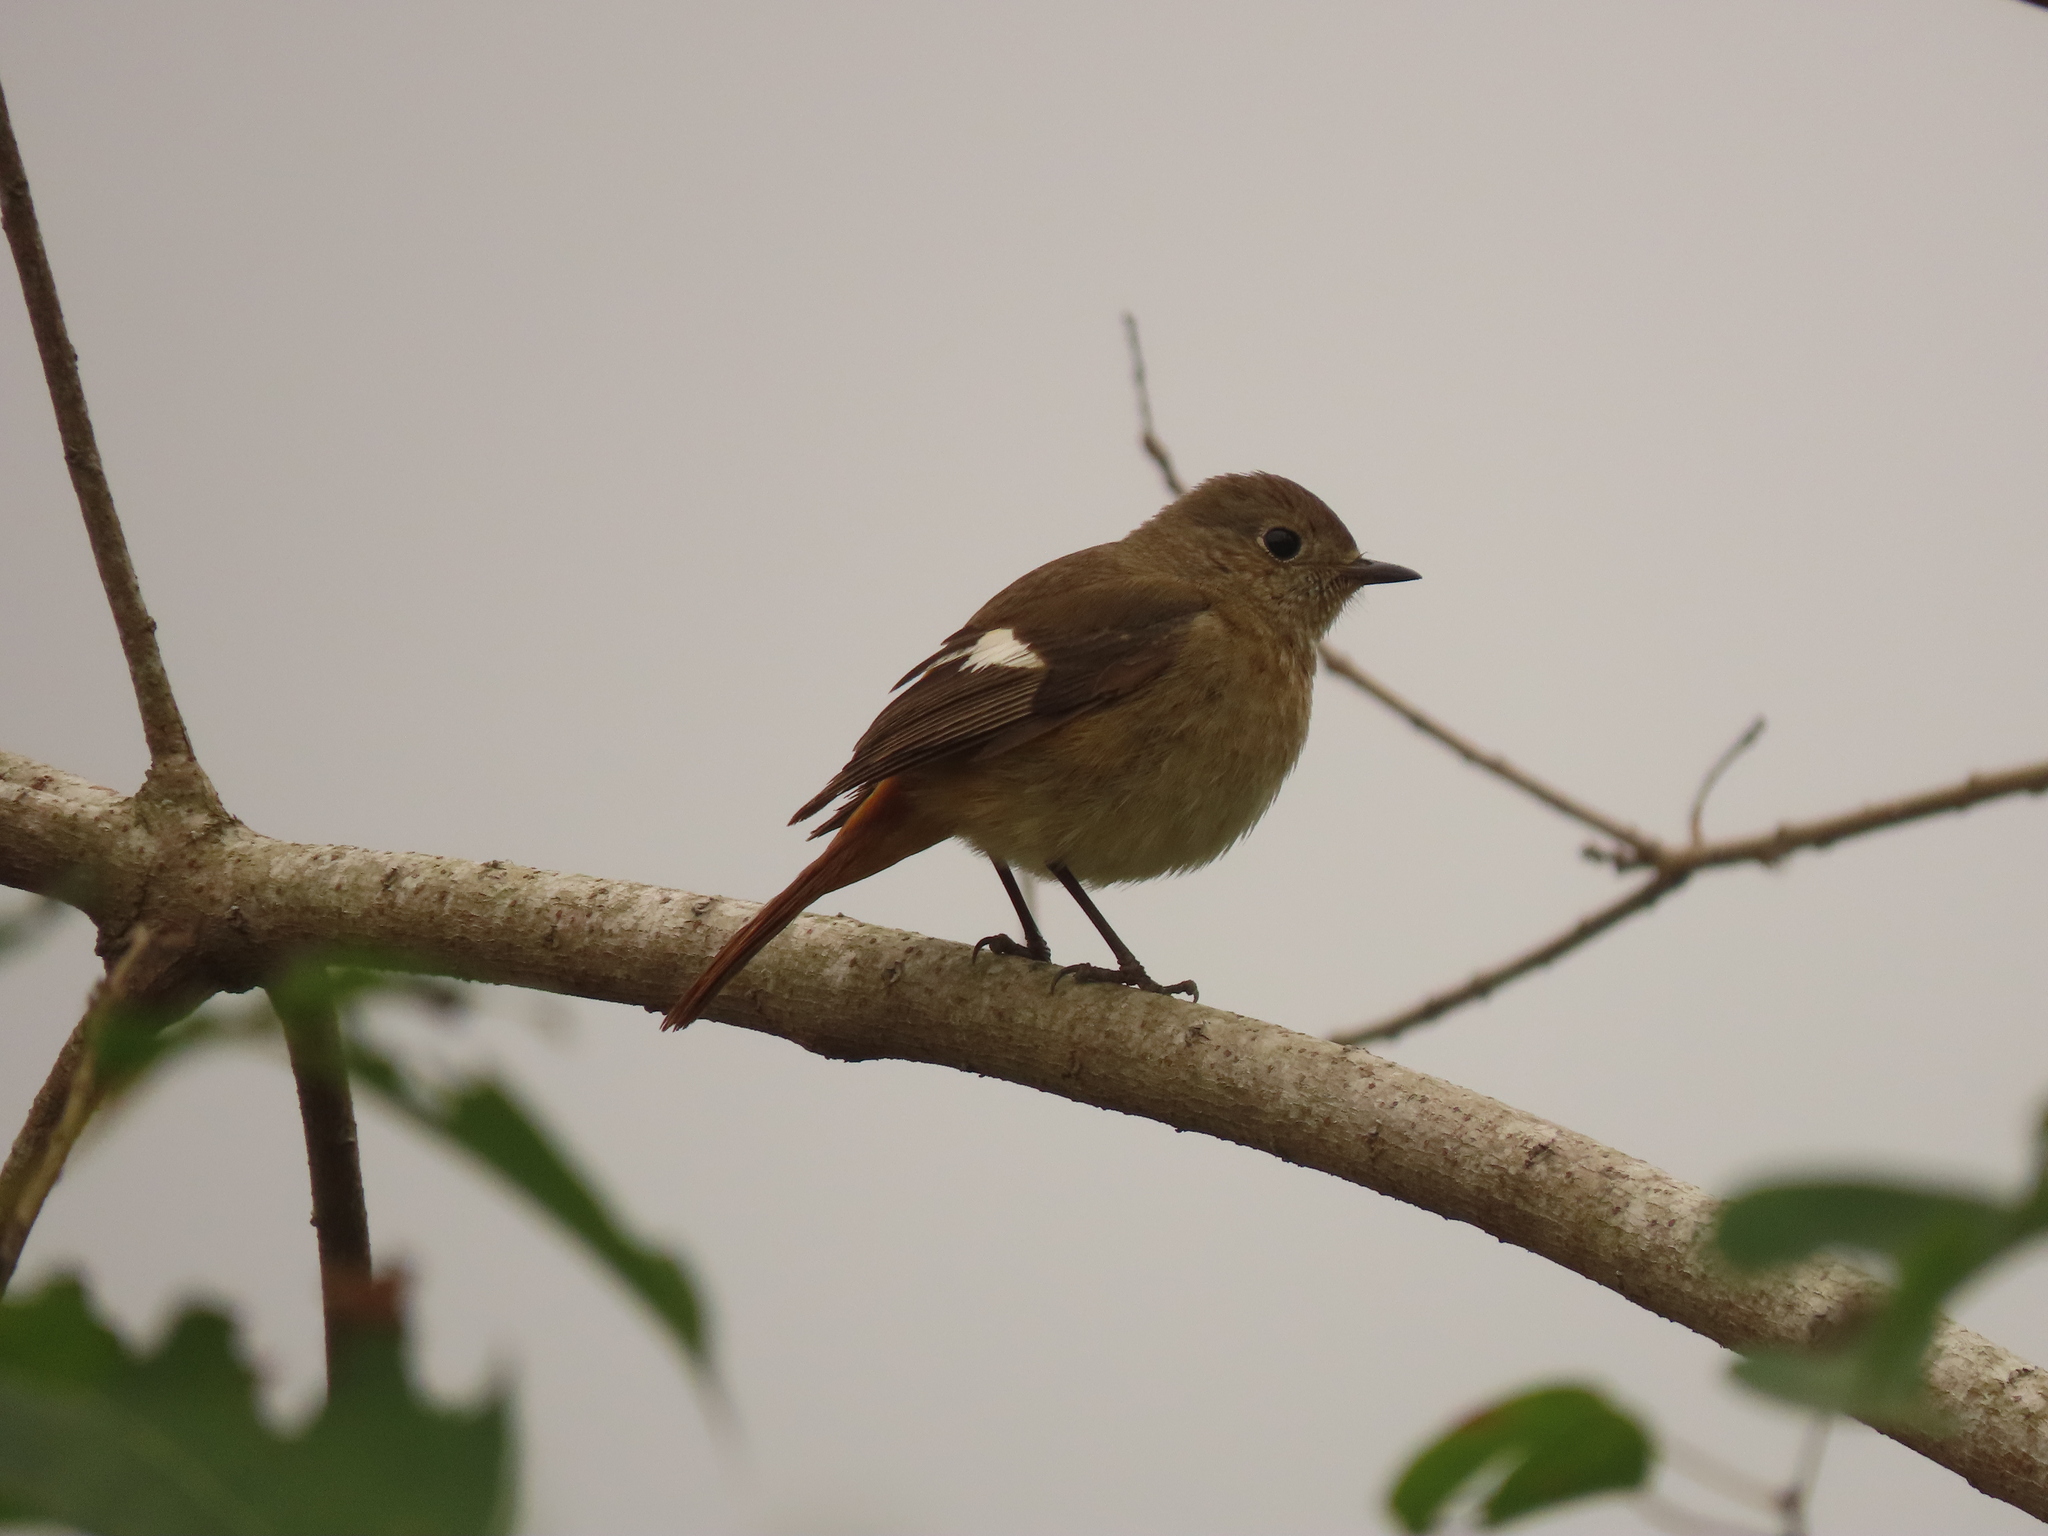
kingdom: Animalia
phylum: Chordata
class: Aves
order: Passeriformes
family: Muscicapidae
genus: Phoenicurus
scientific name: Phoenicurus auroreus
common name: Daurian redstart
